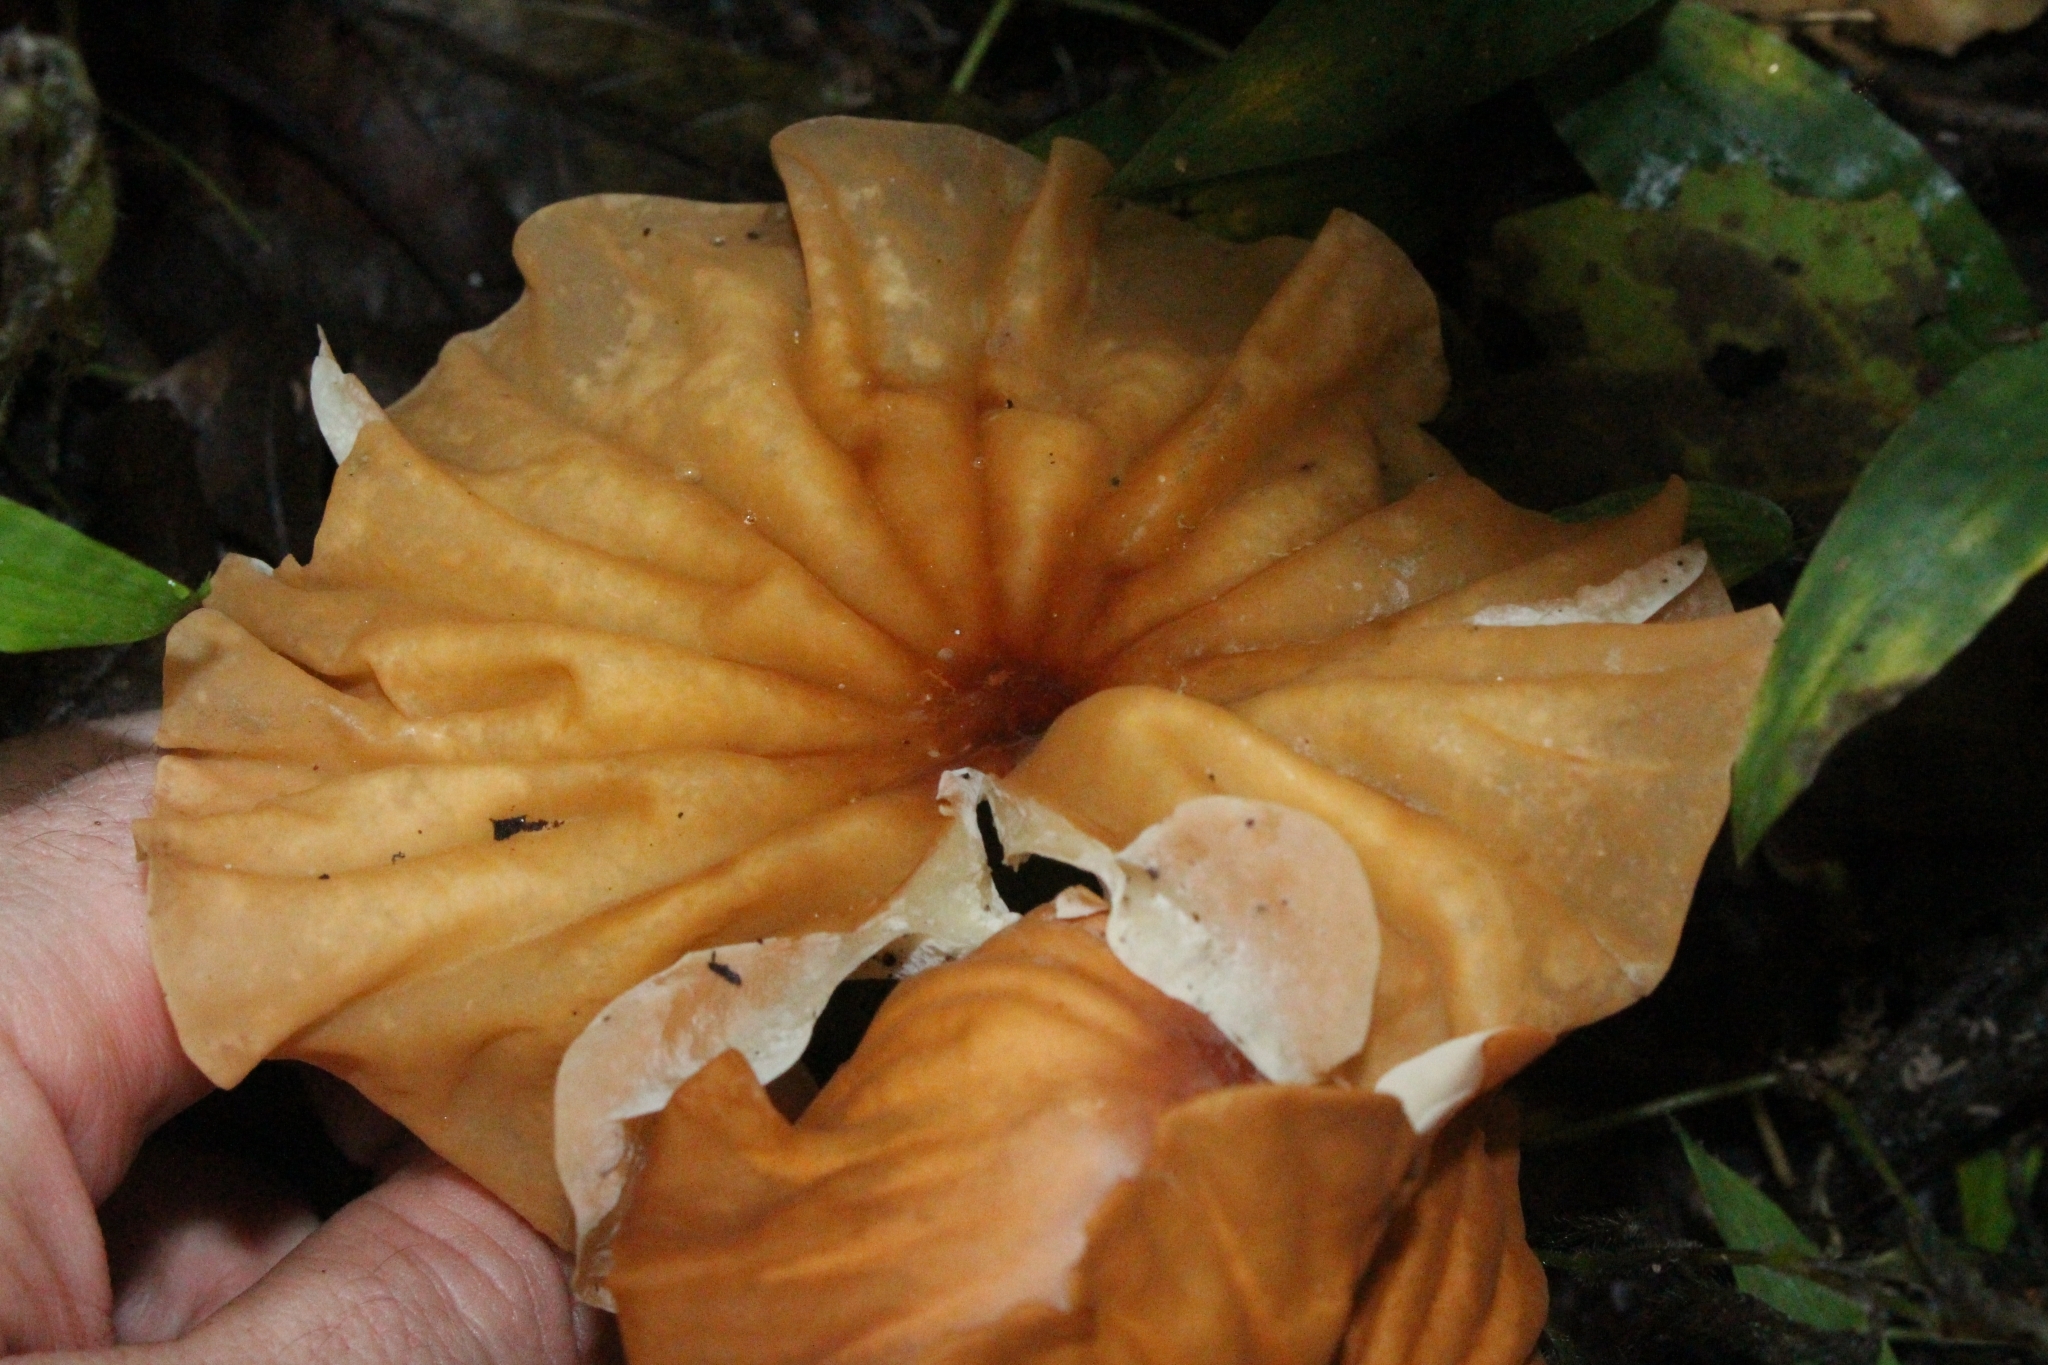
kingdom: Fungi
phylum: Basidiomycota
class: Agaricomycetes
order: Agaricales
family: Marasmiaceae
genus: Marasmius
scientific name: Marasmius berteroi
